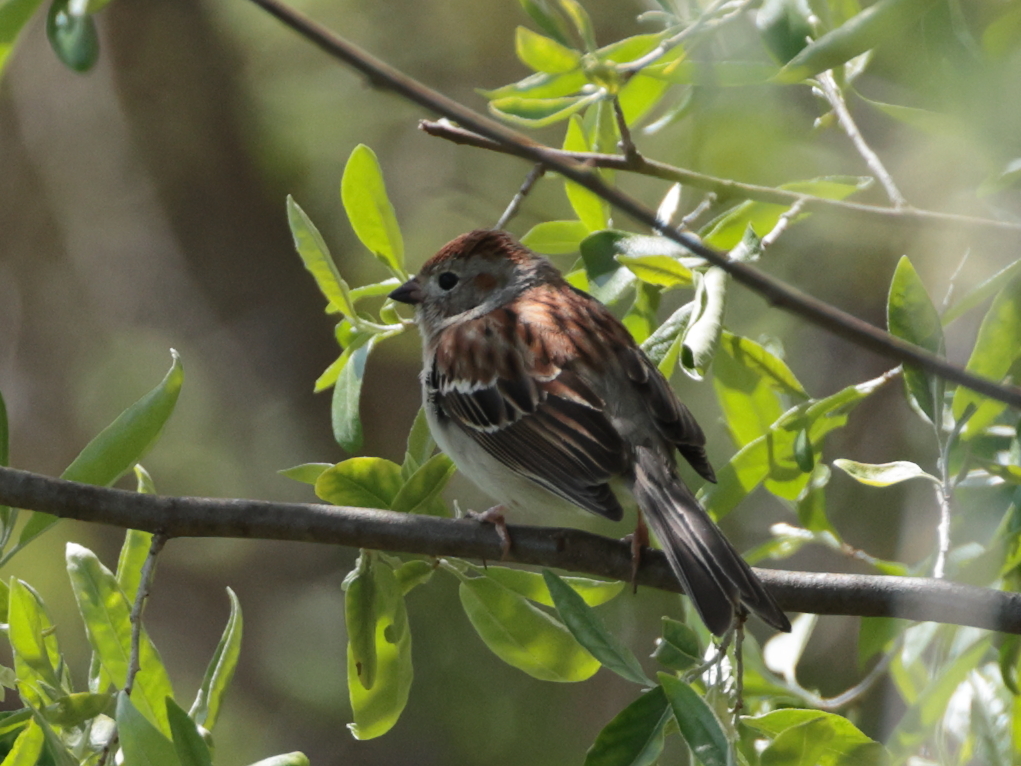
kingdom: Animalia
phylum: Chordata
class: Aves
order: Passeriformes
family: Passerellidae
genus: Spizella
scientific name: Spizella pusilla
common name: Field sparrow
